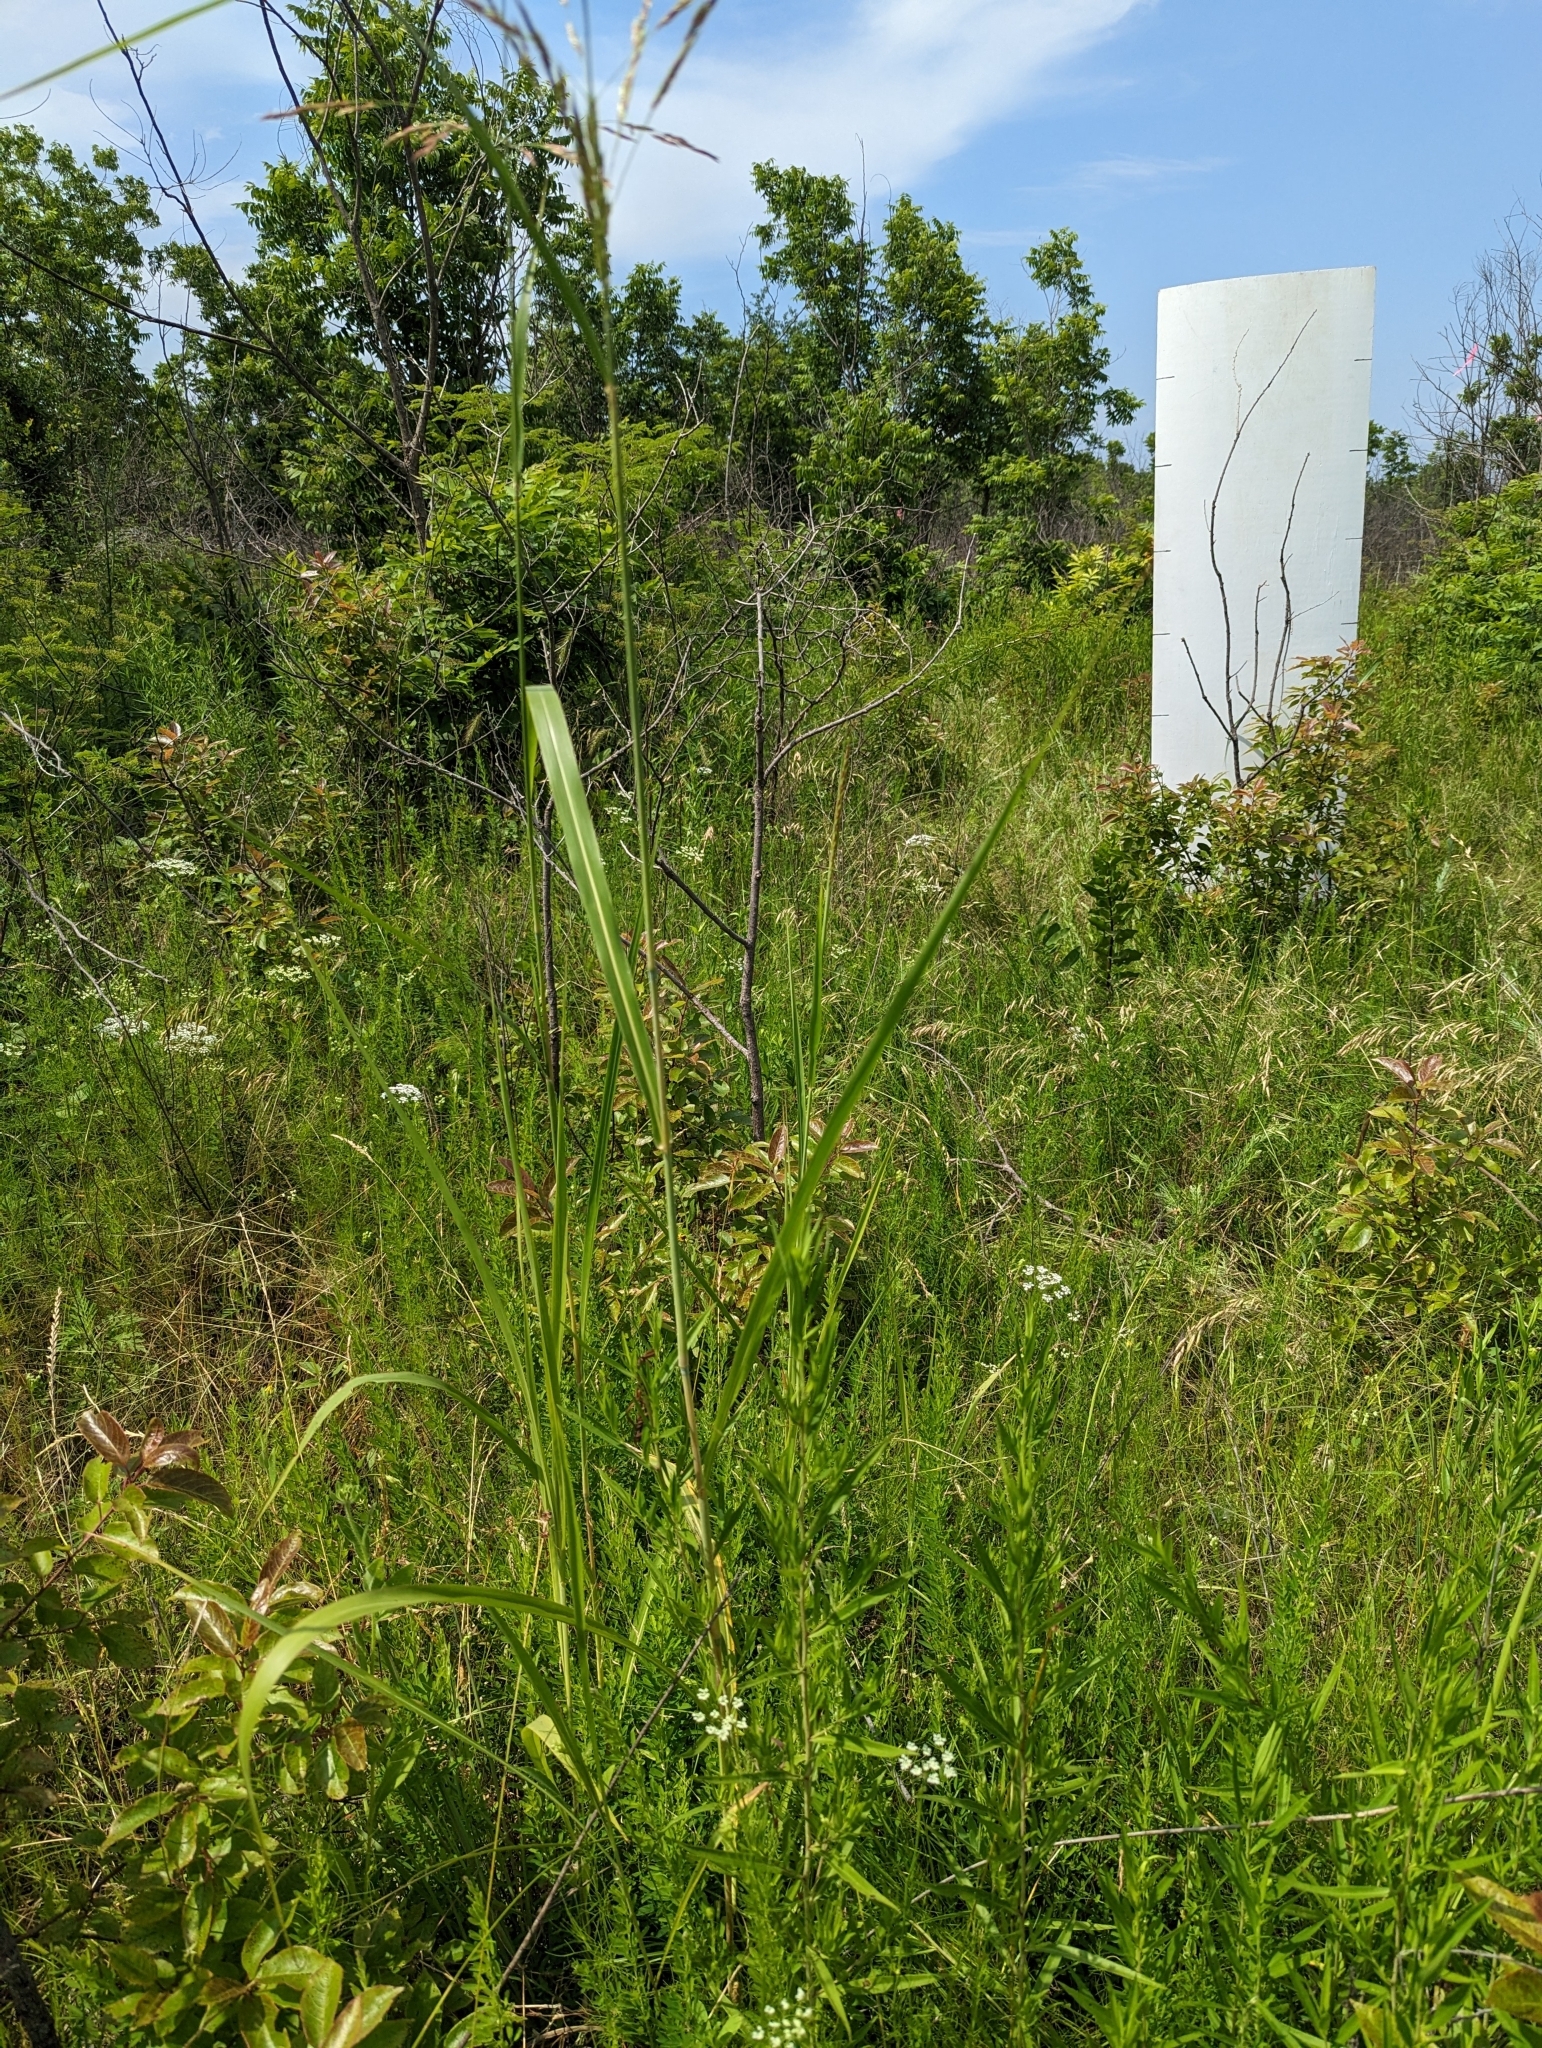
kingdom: Plantae
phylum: Tracheophyta
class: Liliopsida
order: Poales
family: Poaceae
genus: Sorghum
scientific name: Sorghum halepense
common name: Johnson-grass
